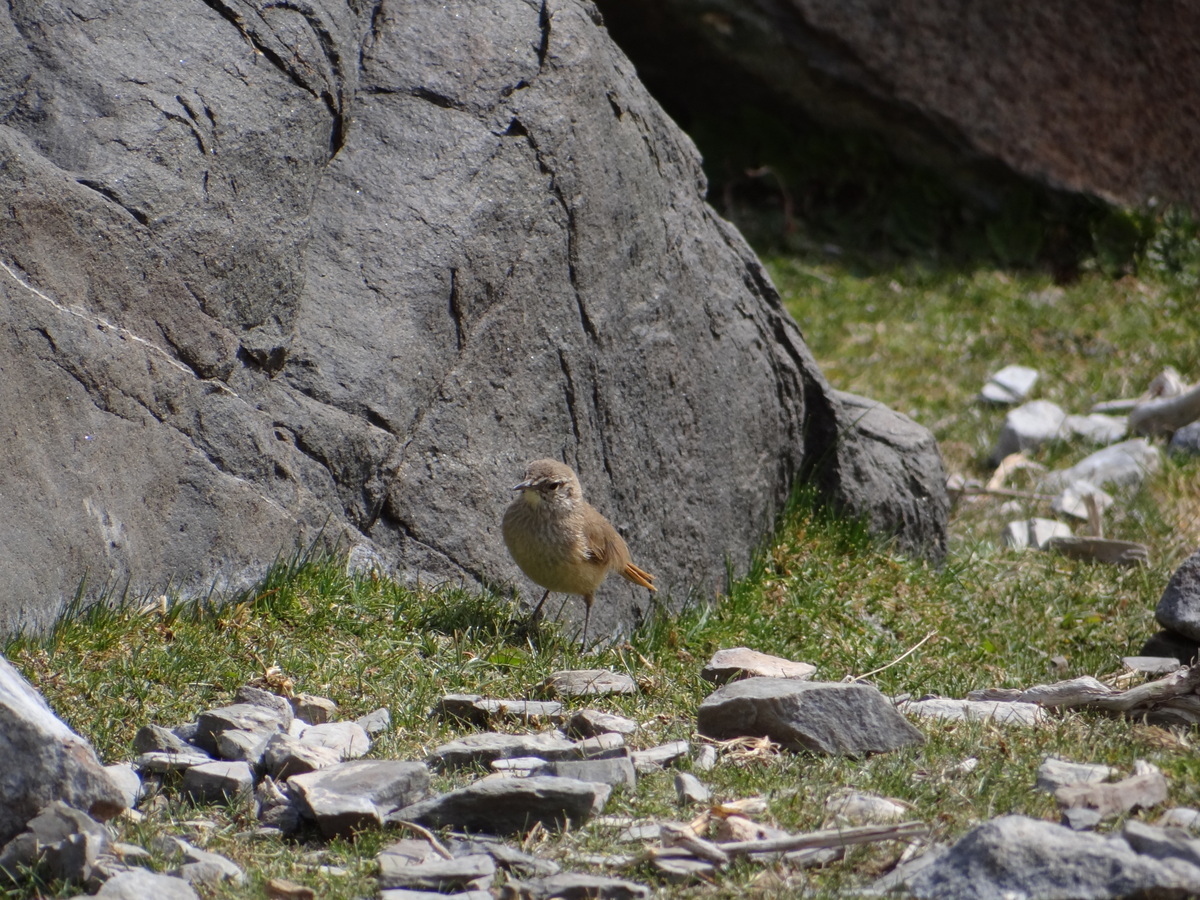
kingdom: Animalia
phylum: Chordata
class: Aves
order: Passeriformes
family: Furnariidae
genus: Asthenes
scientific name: Asthenes modesta
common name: Cordilleran canastero
